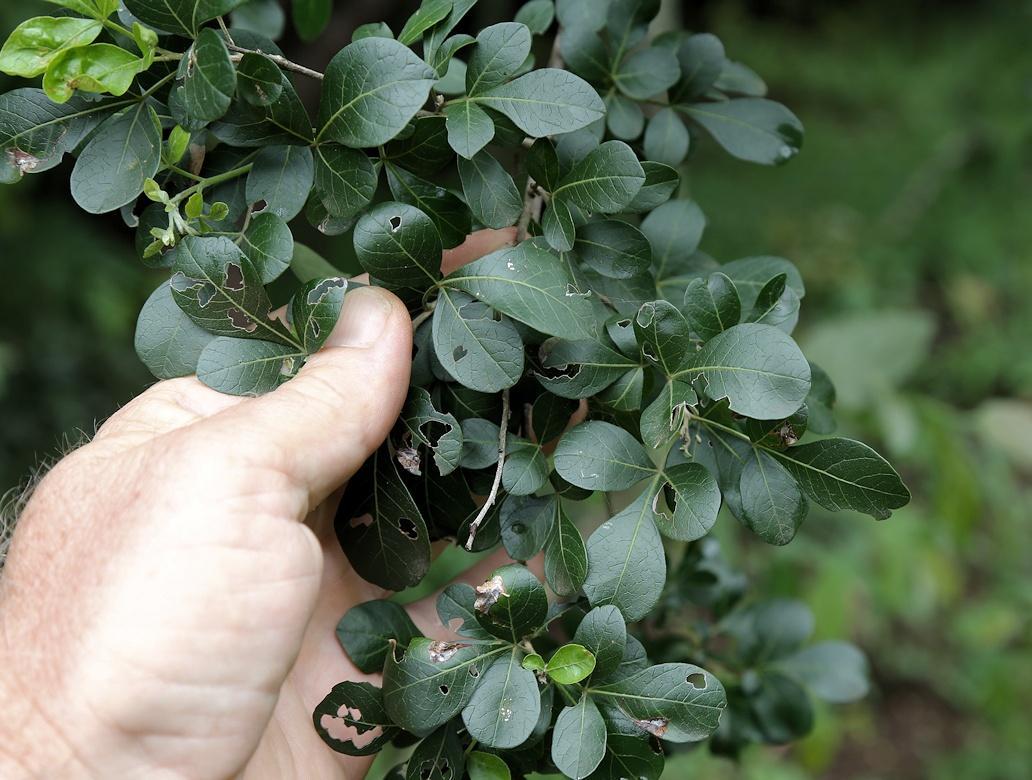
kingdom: Plantae
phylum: Tracheophyta
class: Magnoliopsida
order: Sapindales
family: Anacardiaceae
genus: Searsia
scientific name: Searsia pentheri
